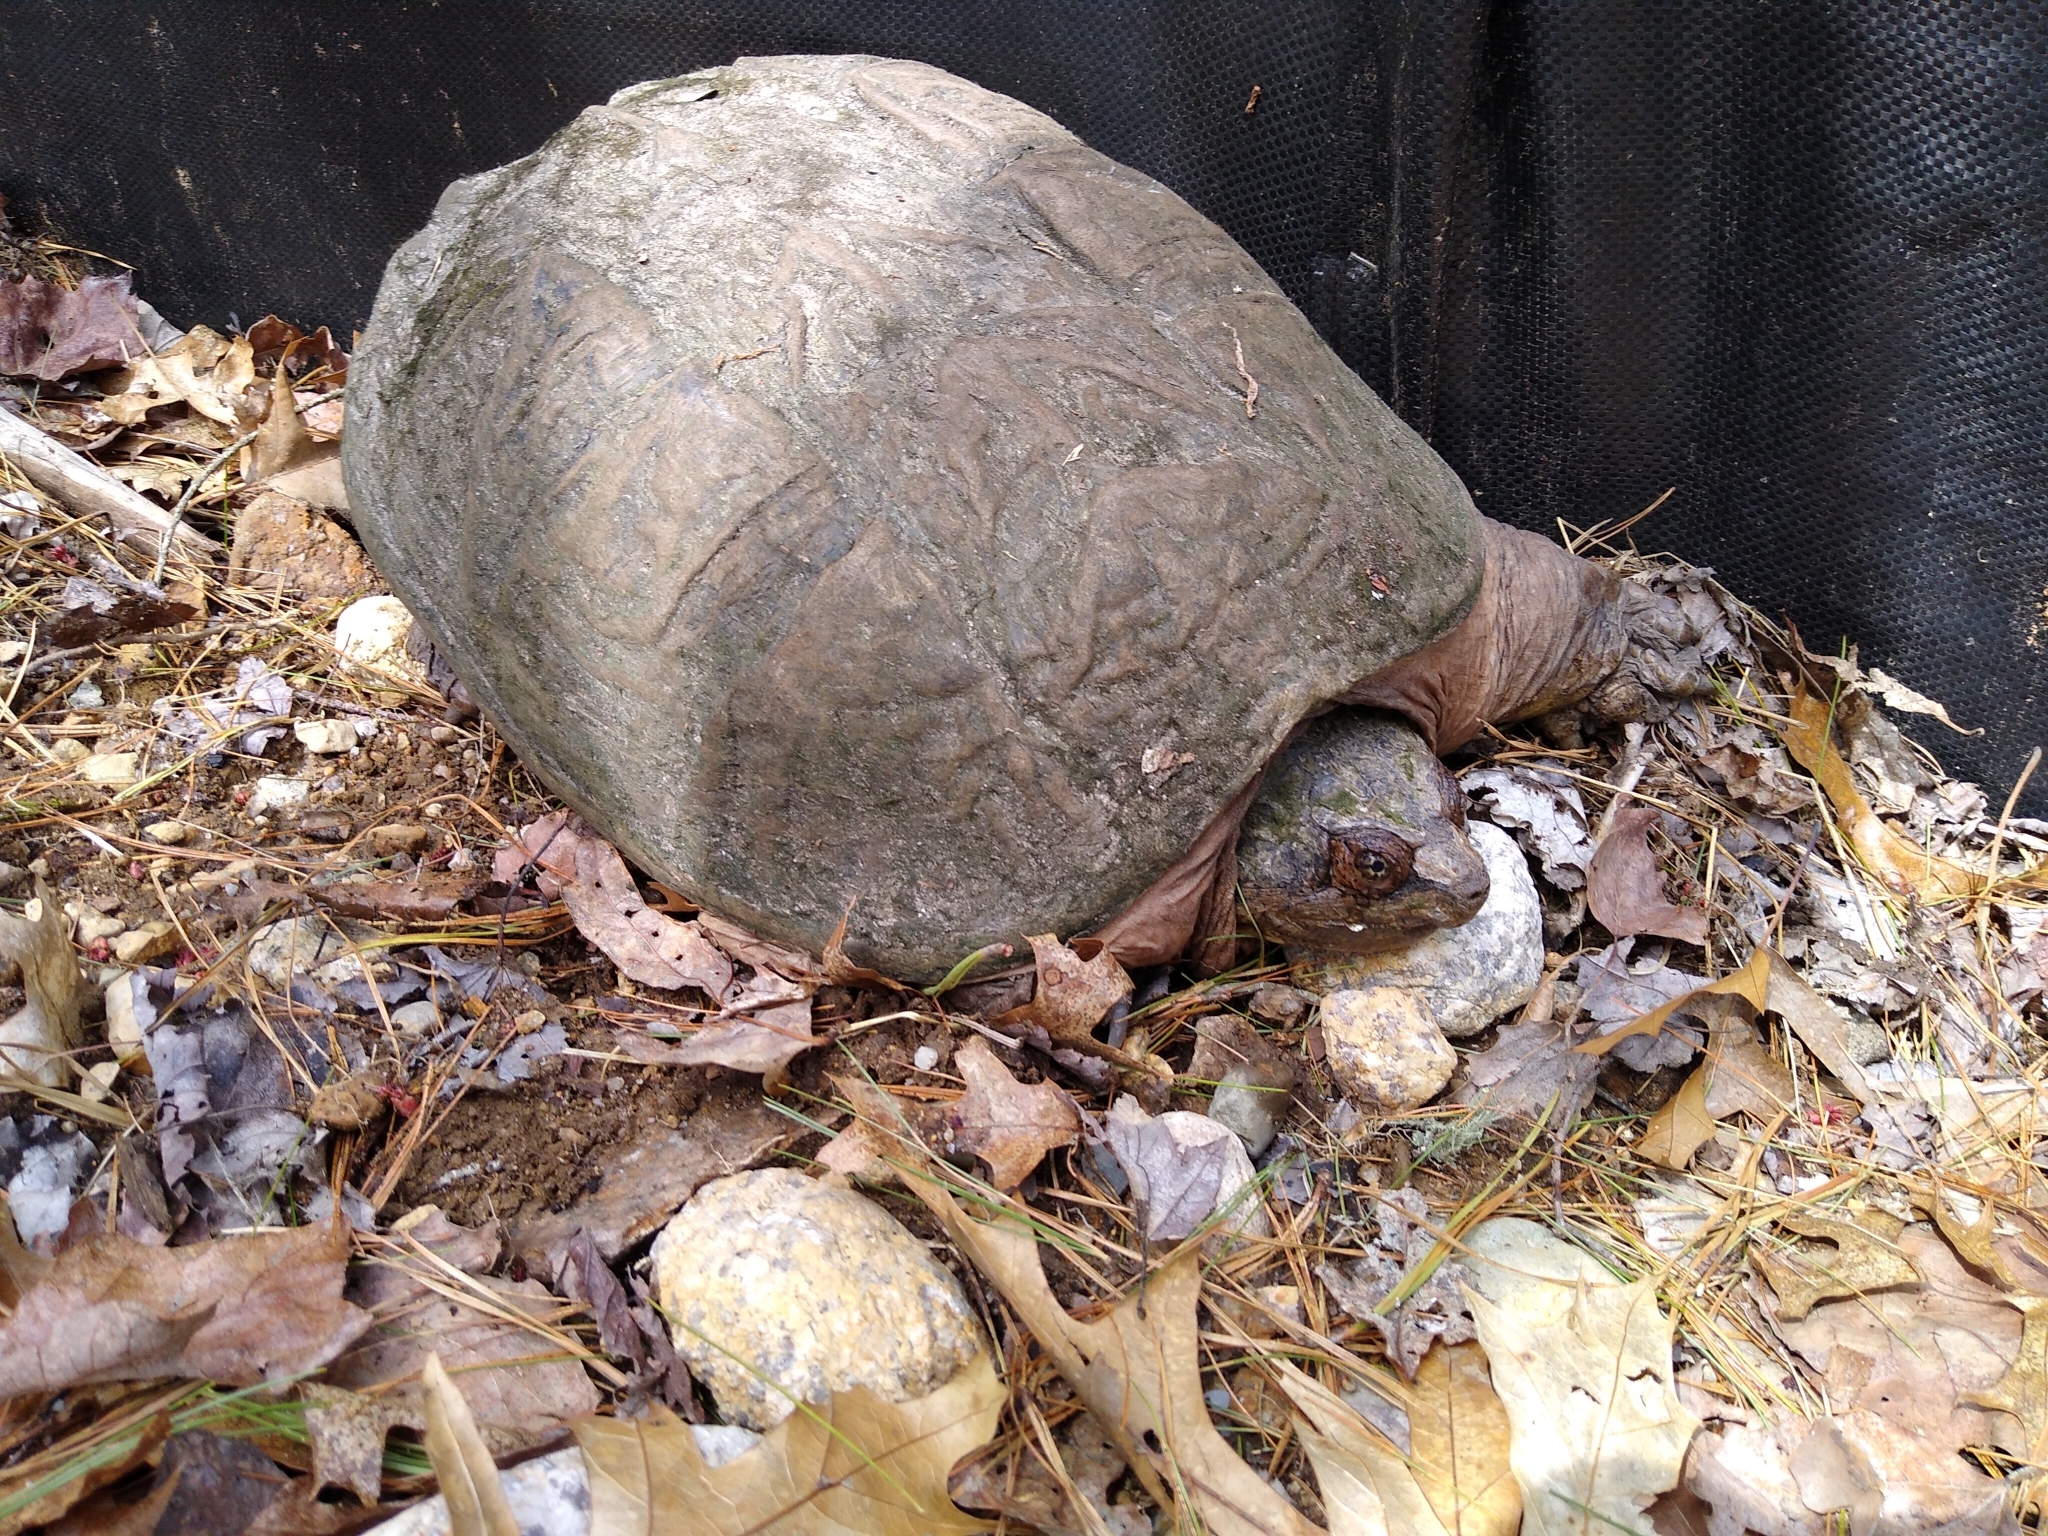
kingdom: Animalia
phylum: Chordata
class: Testudines
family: Chelydridae
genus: Chelydra
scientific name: Chelydra serpentina
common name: Common snapping turtle
